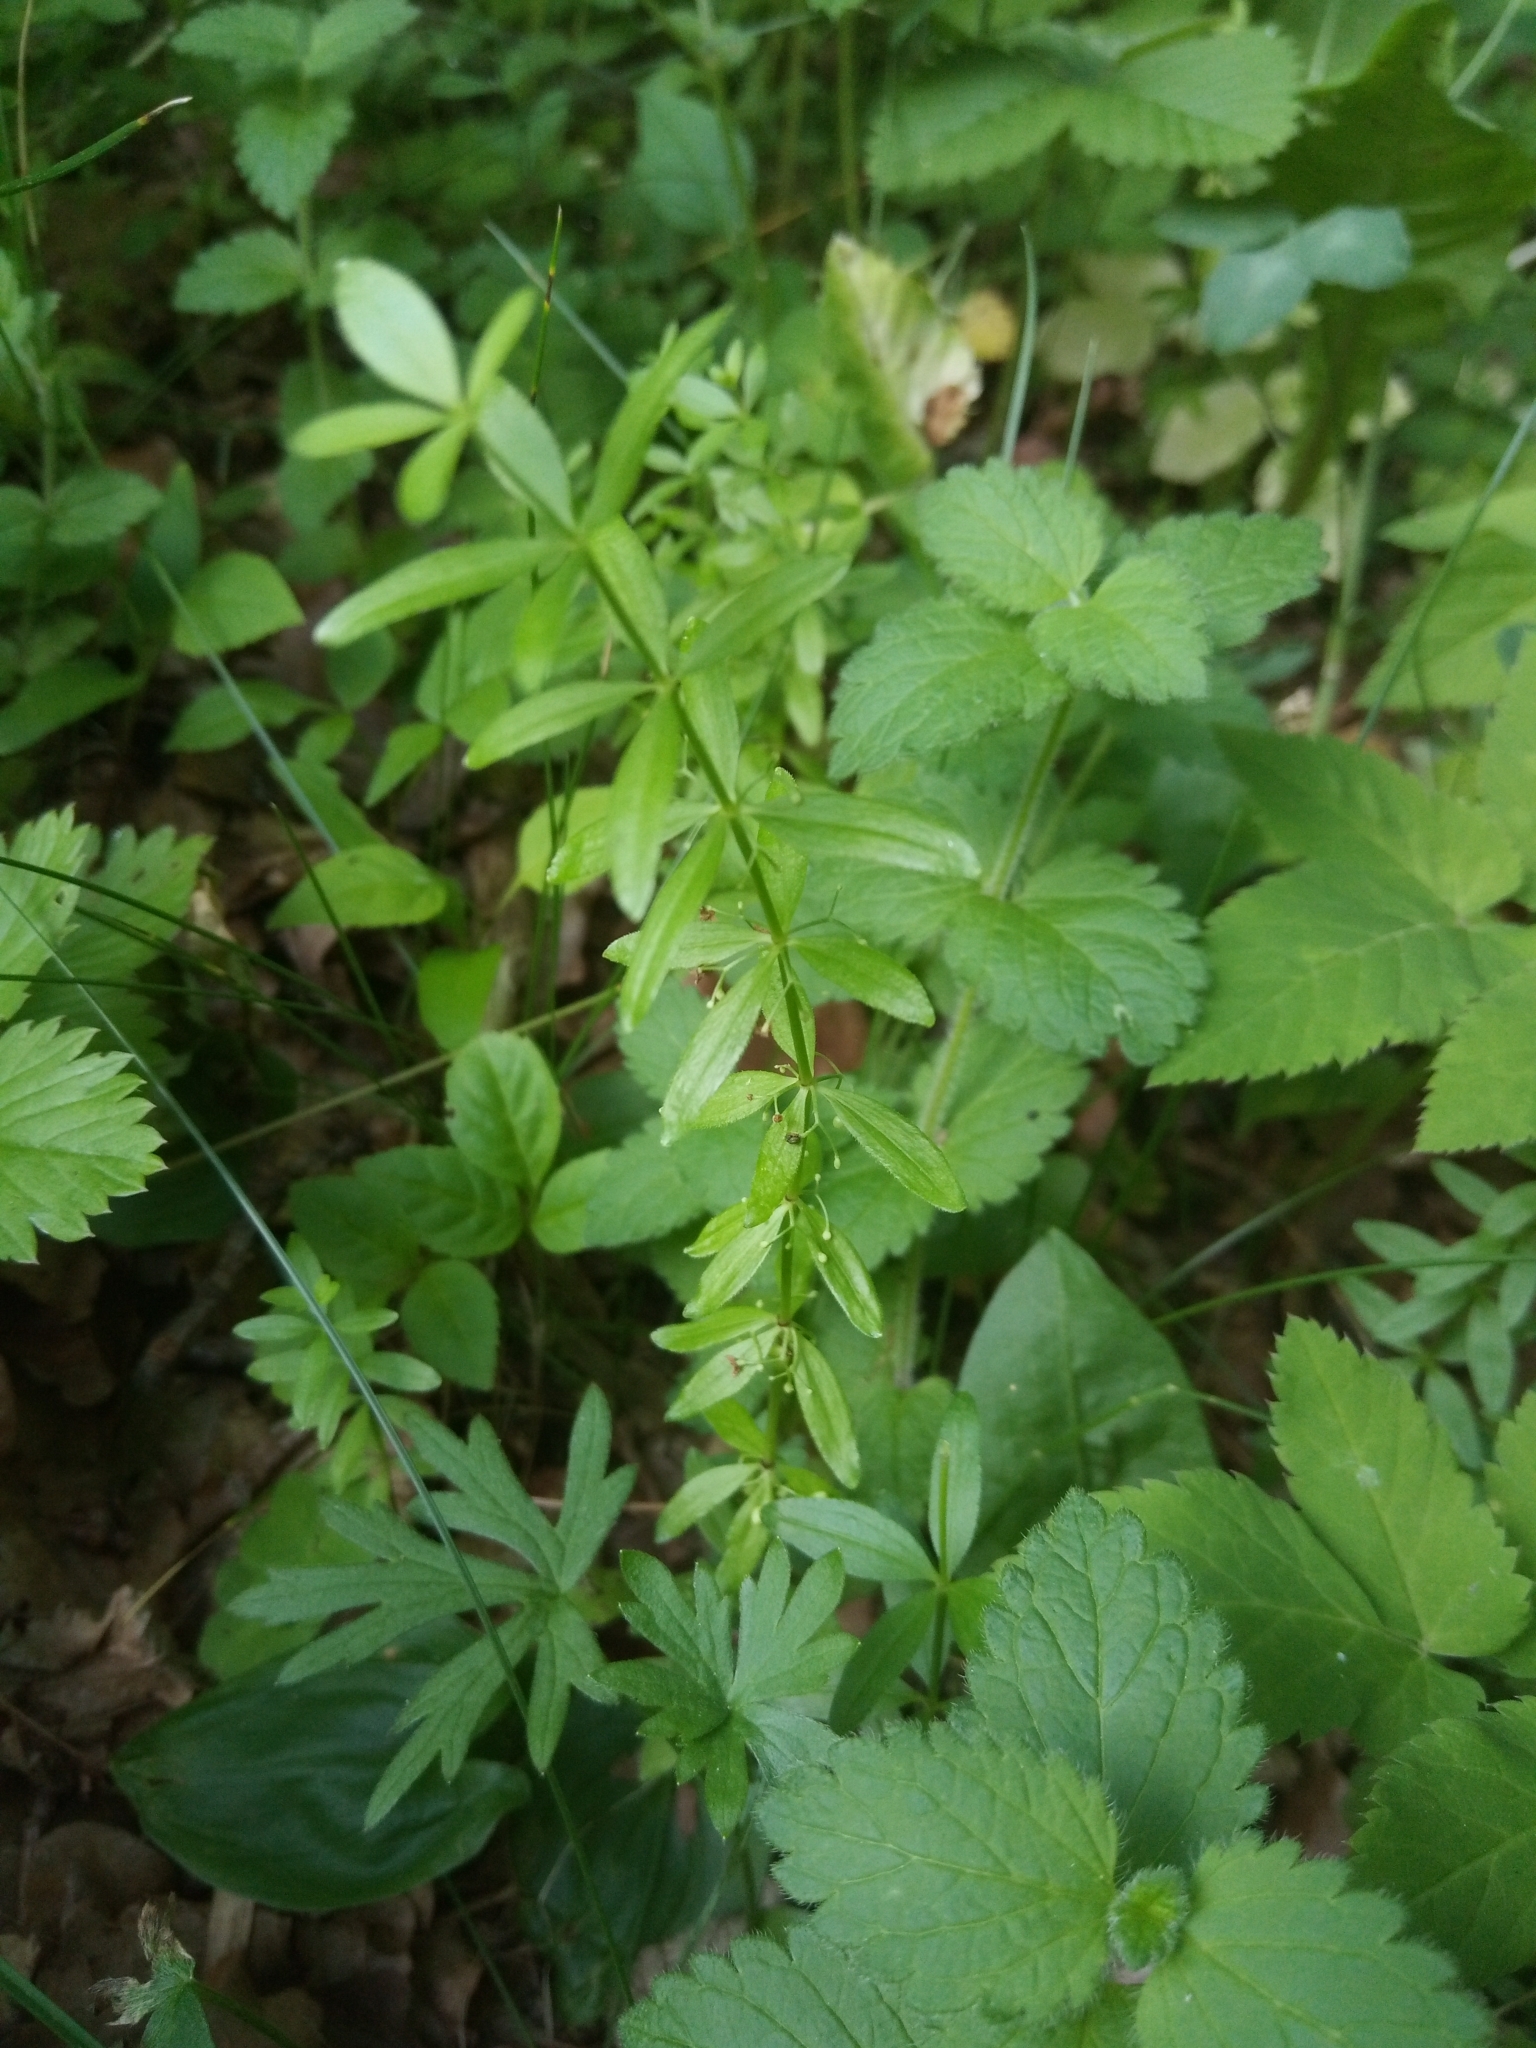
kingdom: Plantae
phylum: Tracheophyta
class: Magnoliopsida
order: Gentianales
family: Rubiaceae
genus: Cruciata
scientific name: Cruciata glabra
